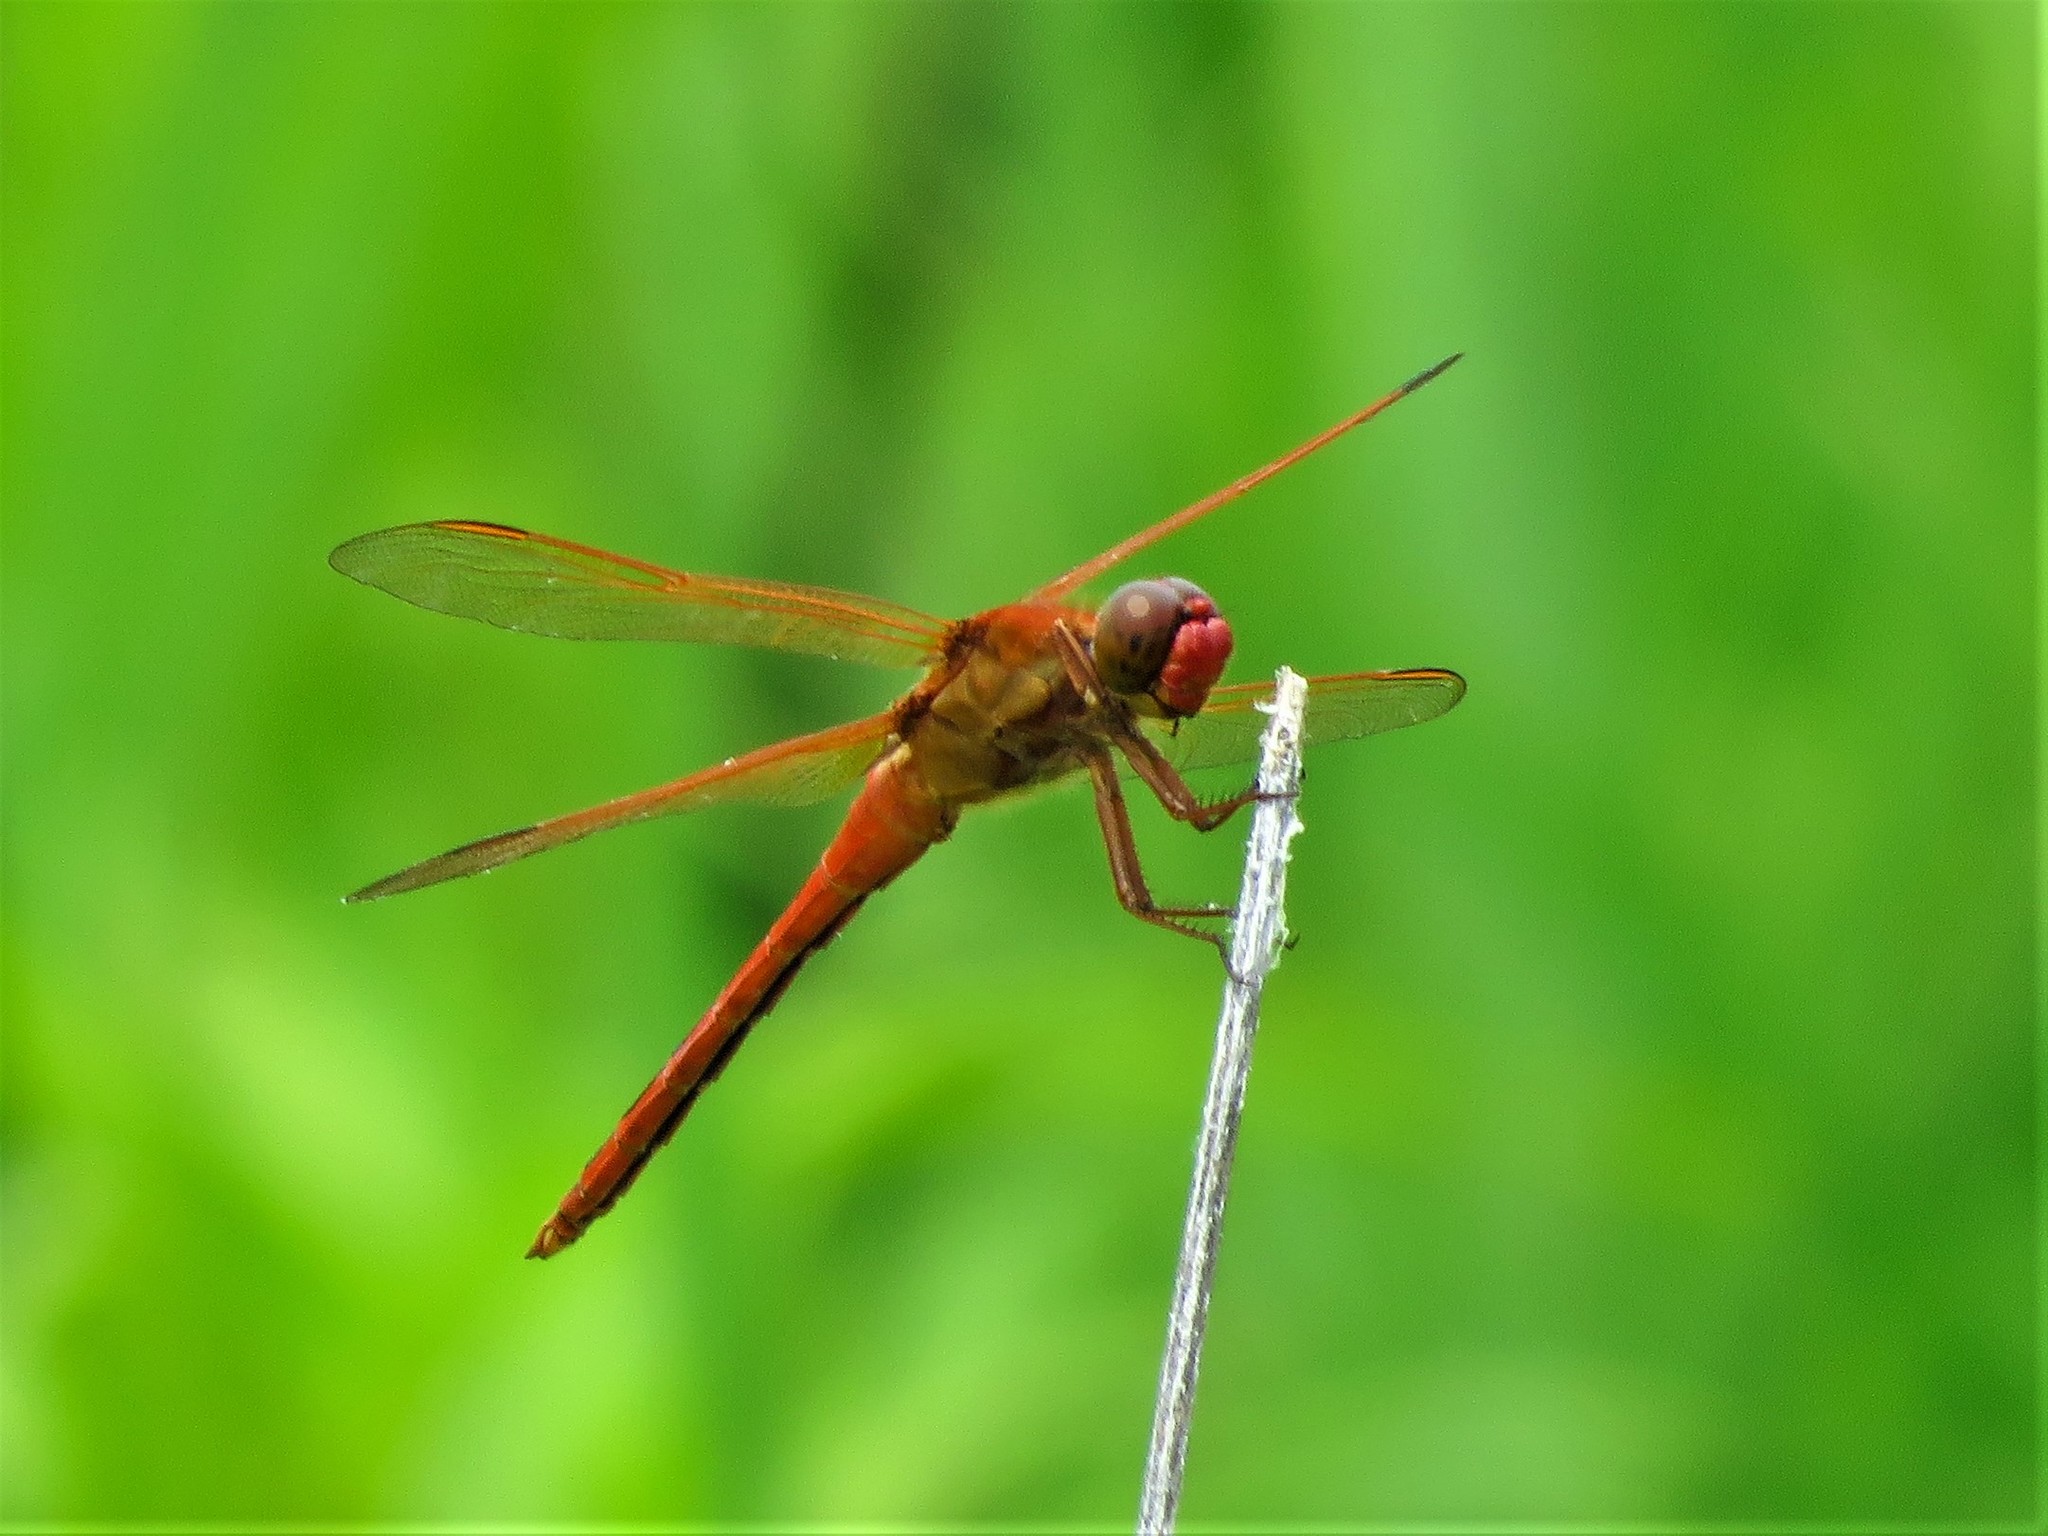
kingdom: Animalia
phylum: Arthropoda
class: Insecta
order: Odonata
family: Libellulidae
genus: Libellula
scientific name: Libellula needhami
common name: Needham's skimmer
